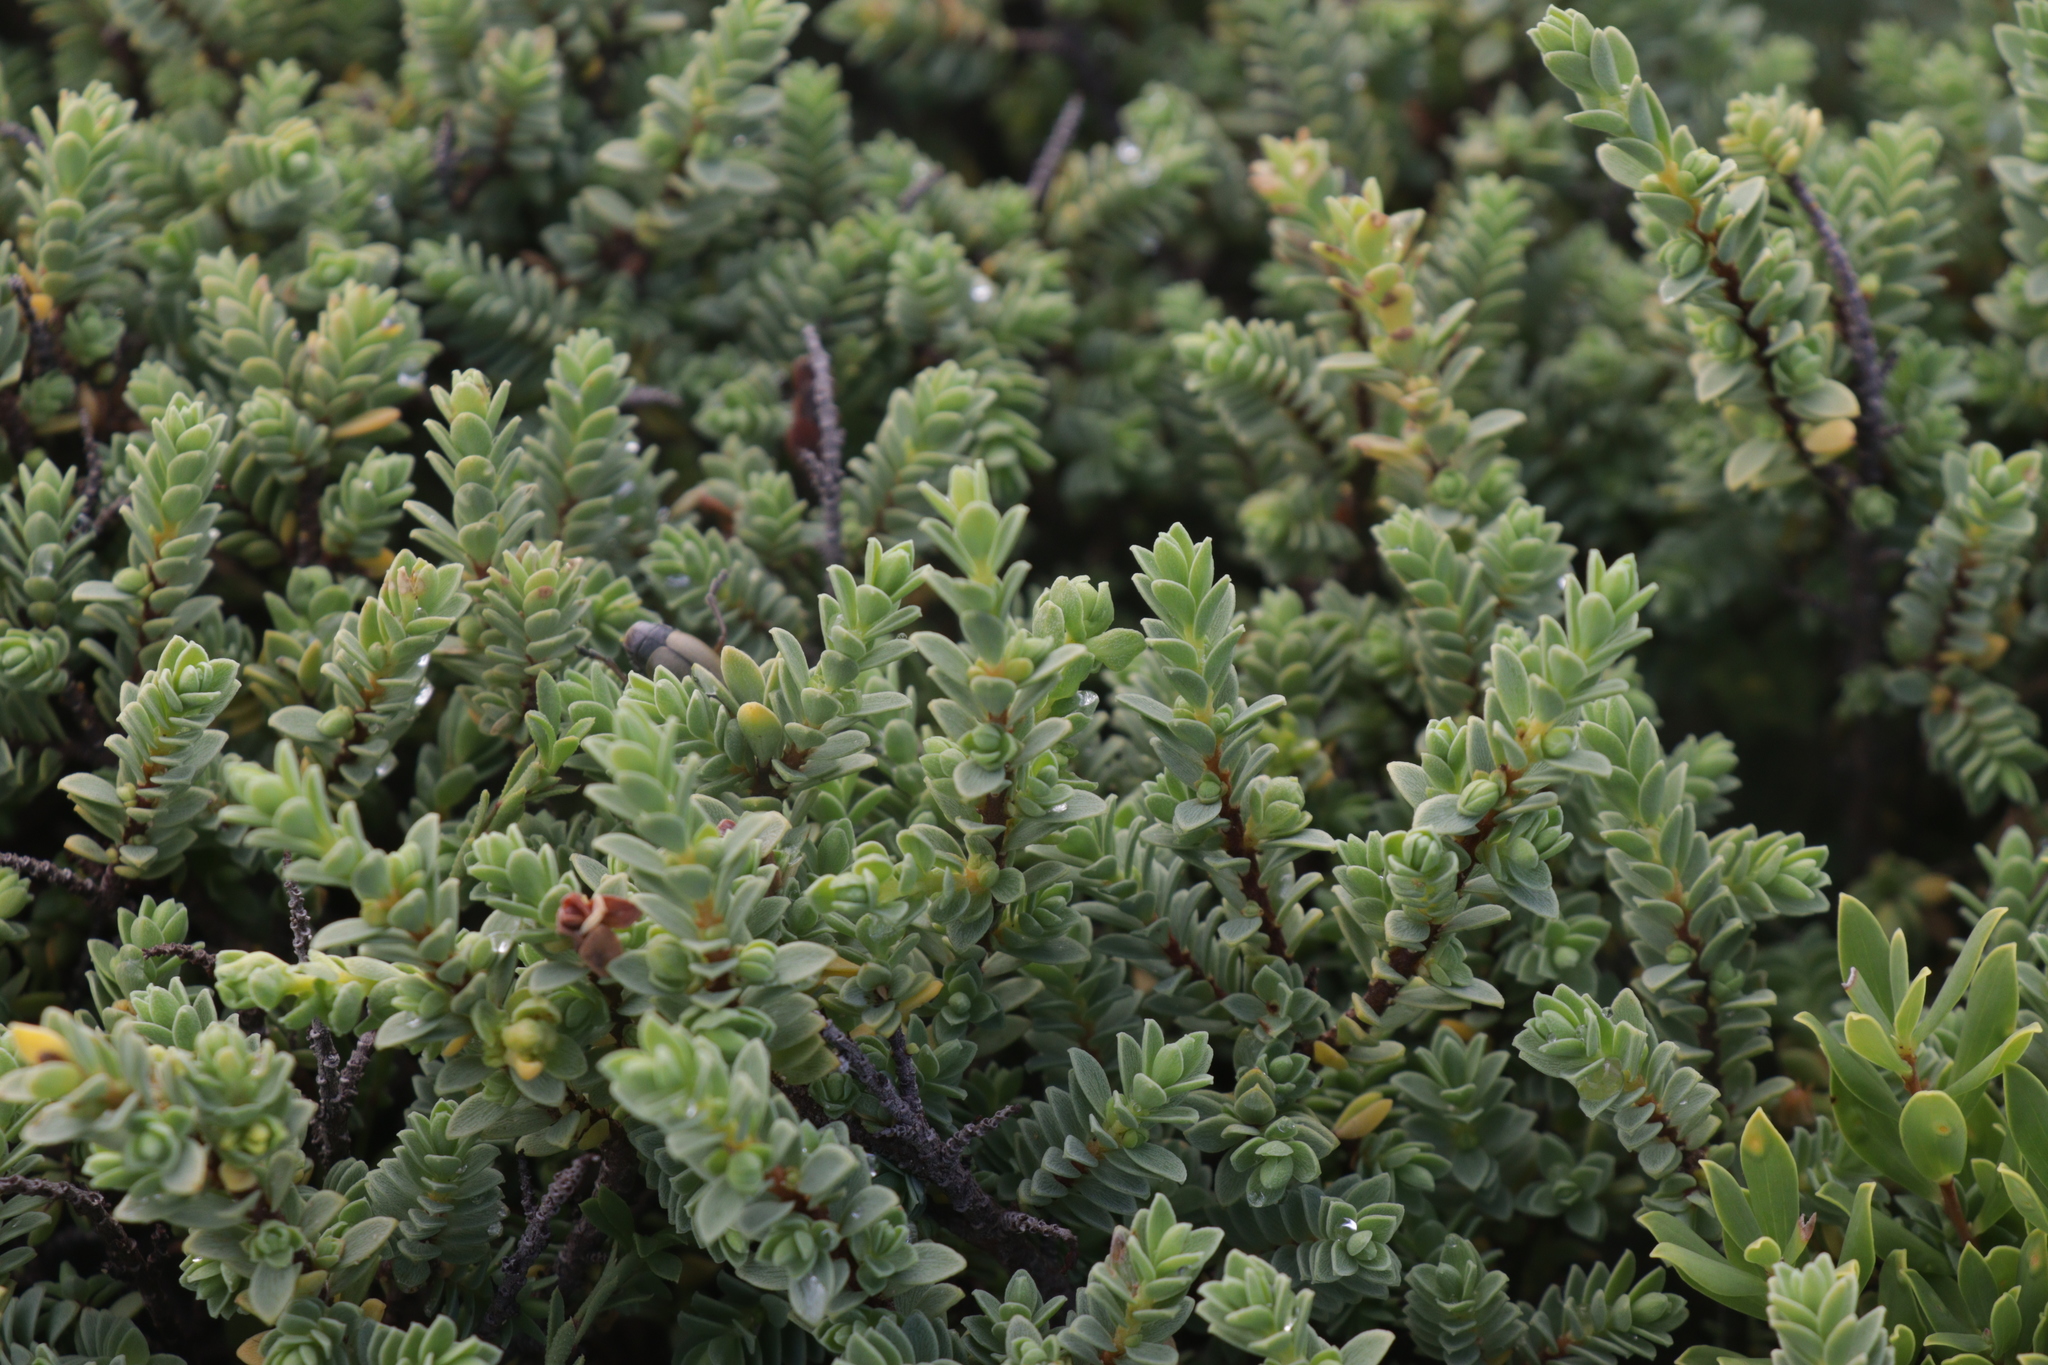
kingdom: Plantae
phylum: Tracheophyta
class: Magnoliopsida
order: Malvales
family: Thymelaeaceae
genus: Pimelea
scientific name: Pimelea serpyllifolia
